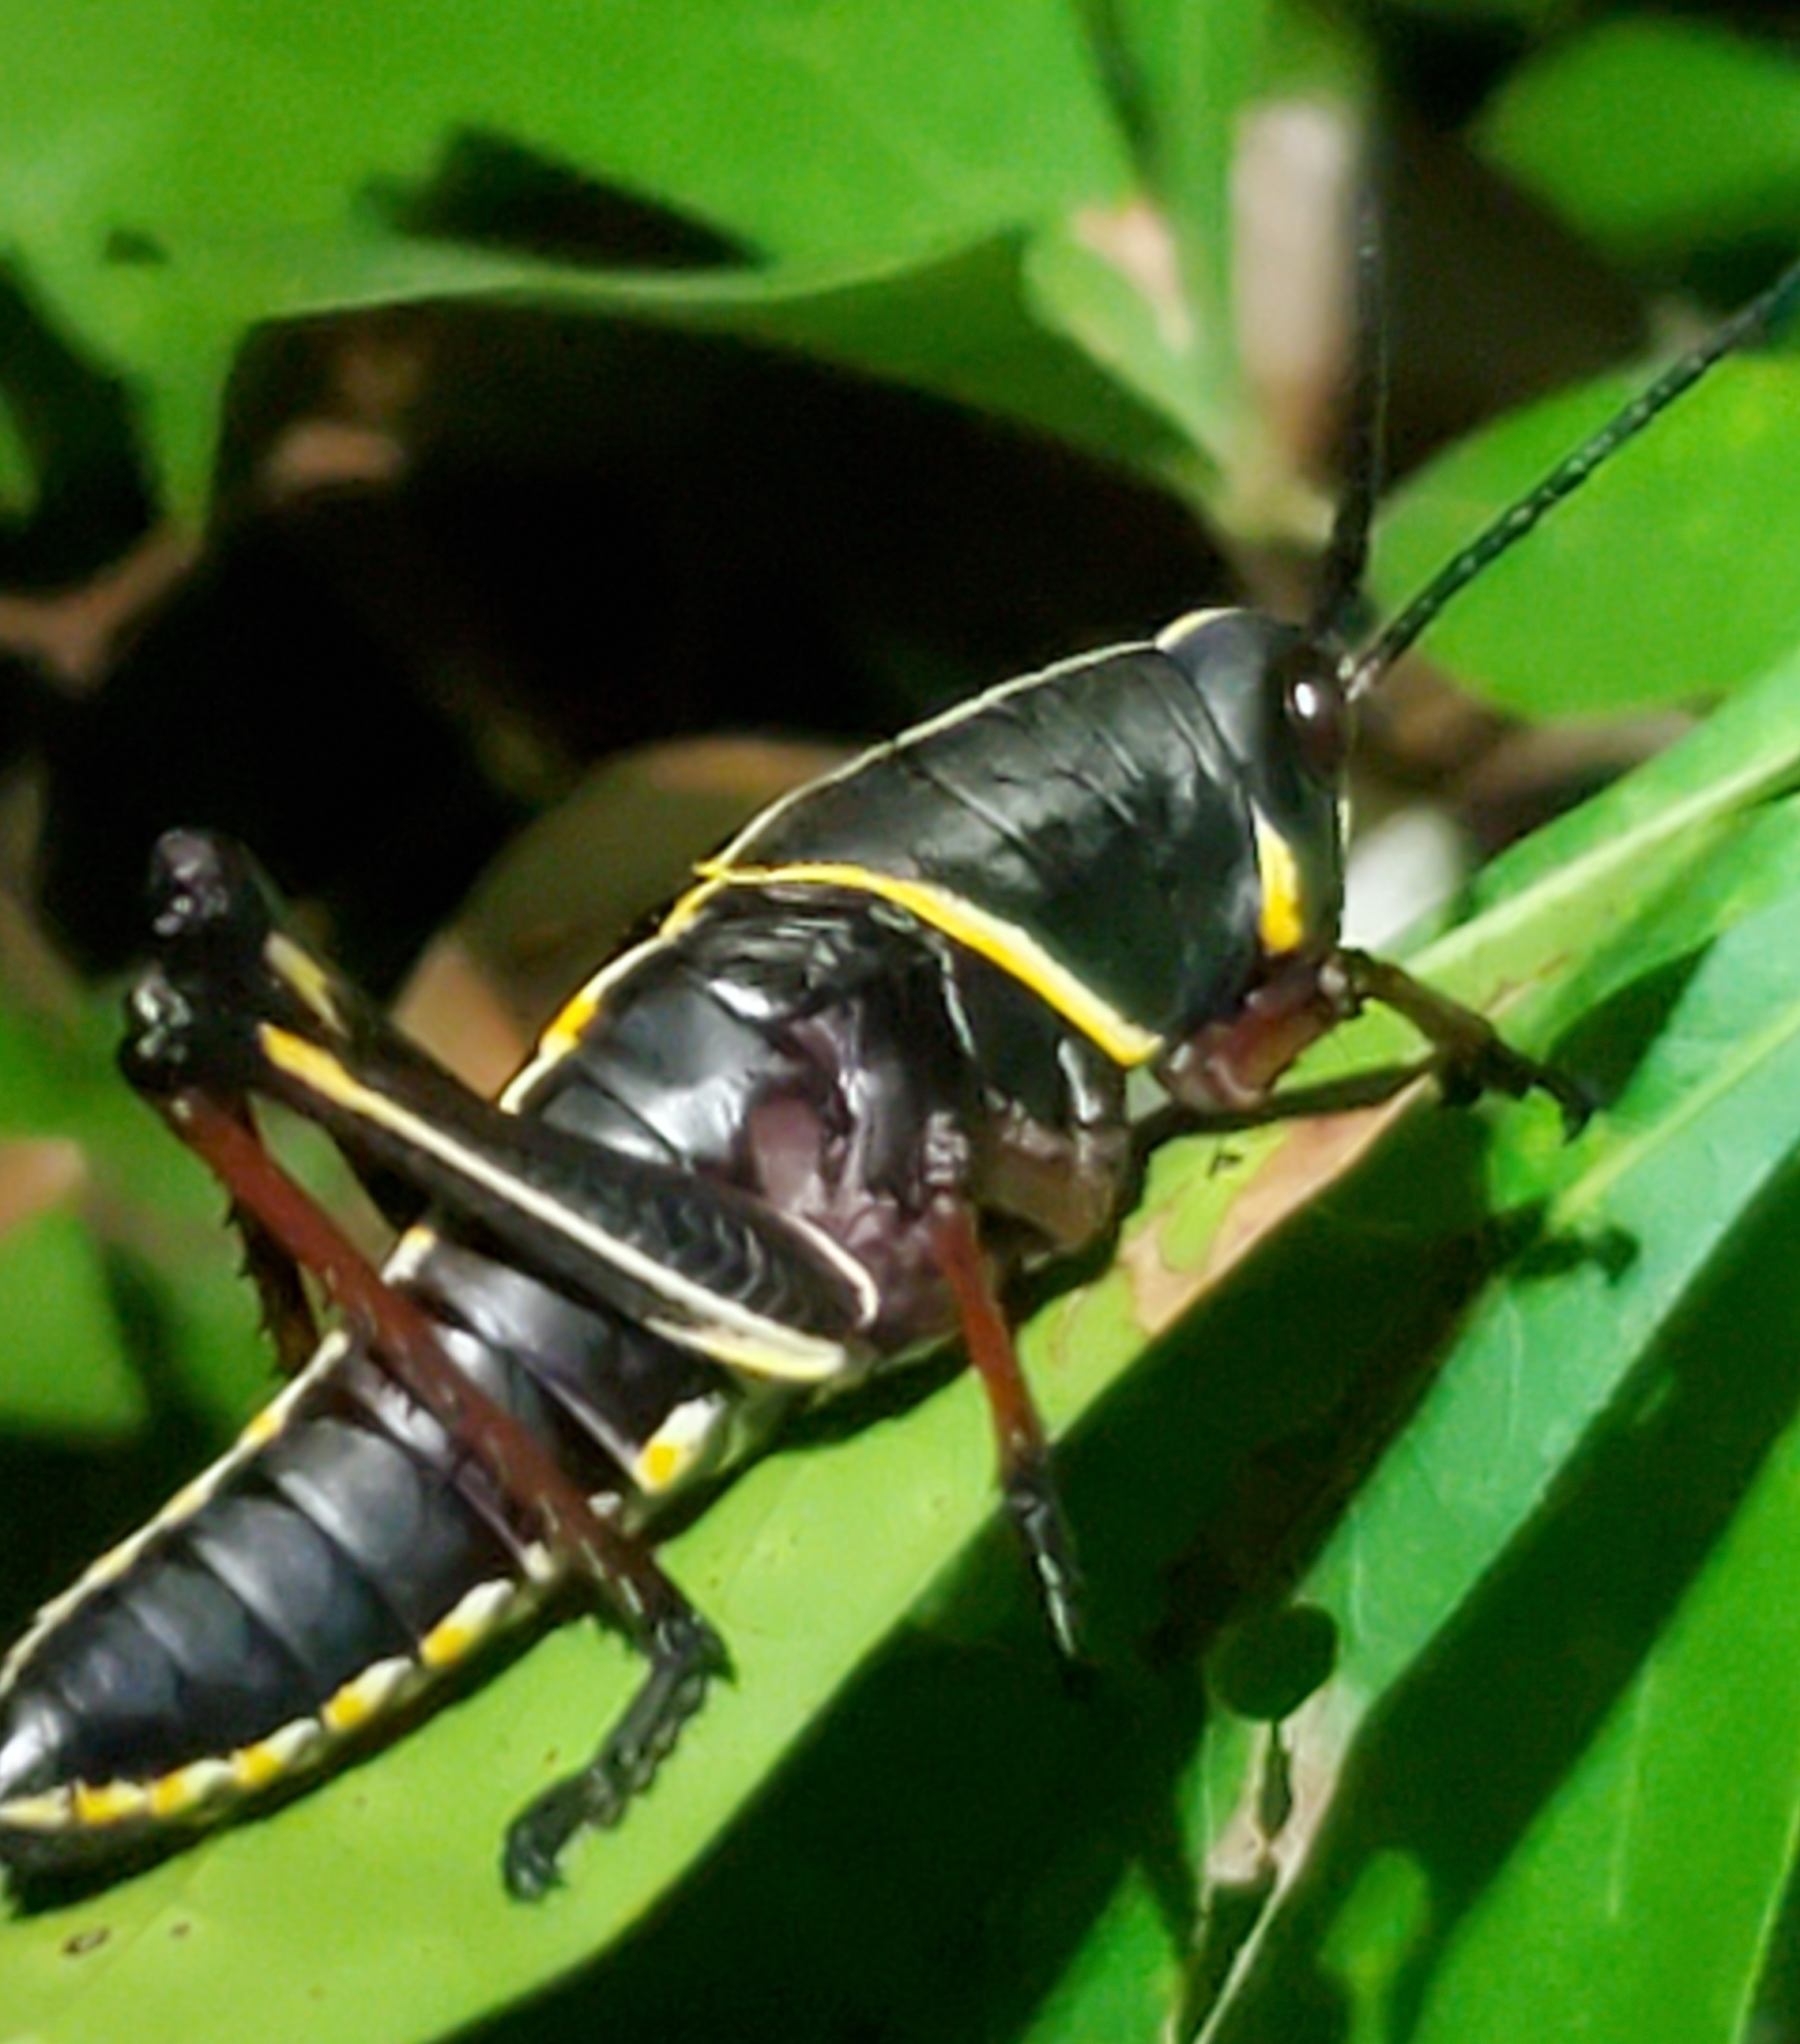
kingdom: Animalia
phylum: Arthropoda
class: Insecta
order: Orthoptera
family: Romaleidae
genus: Romalea
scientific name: Romalea microptera
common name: Eastern lubber grasshopper
